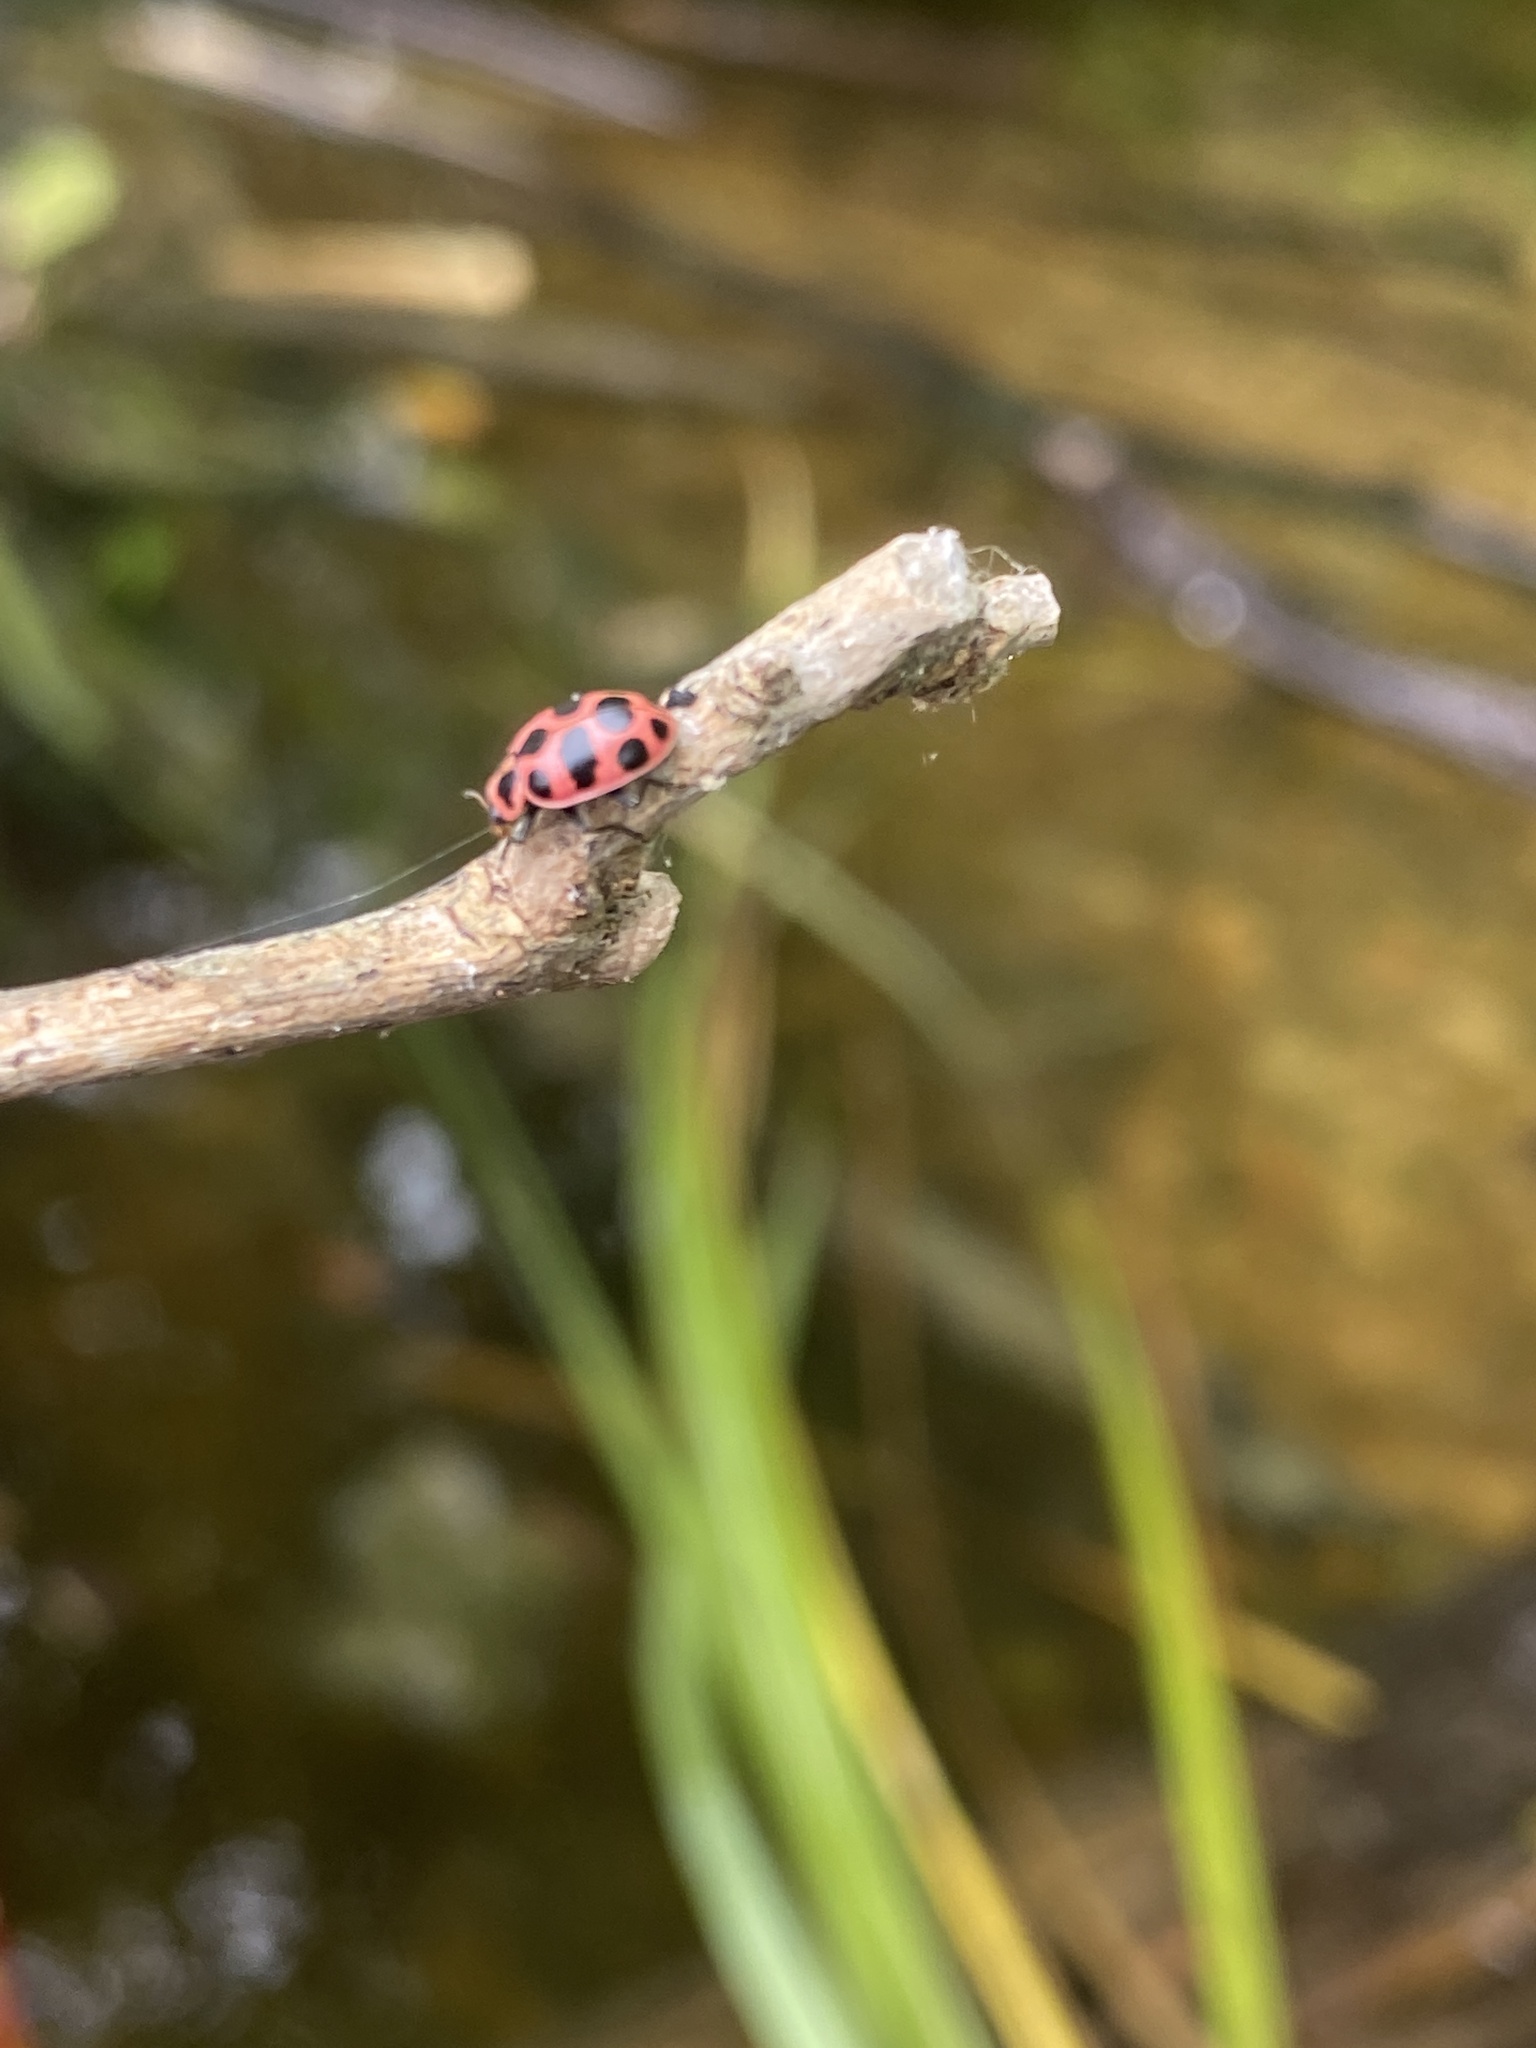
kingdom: Animalia
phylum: Arthropoda
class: Insecta
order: Coleoptera
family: Coccinellidae
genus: Coleomegilla
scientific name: Coleomegilla maculata
